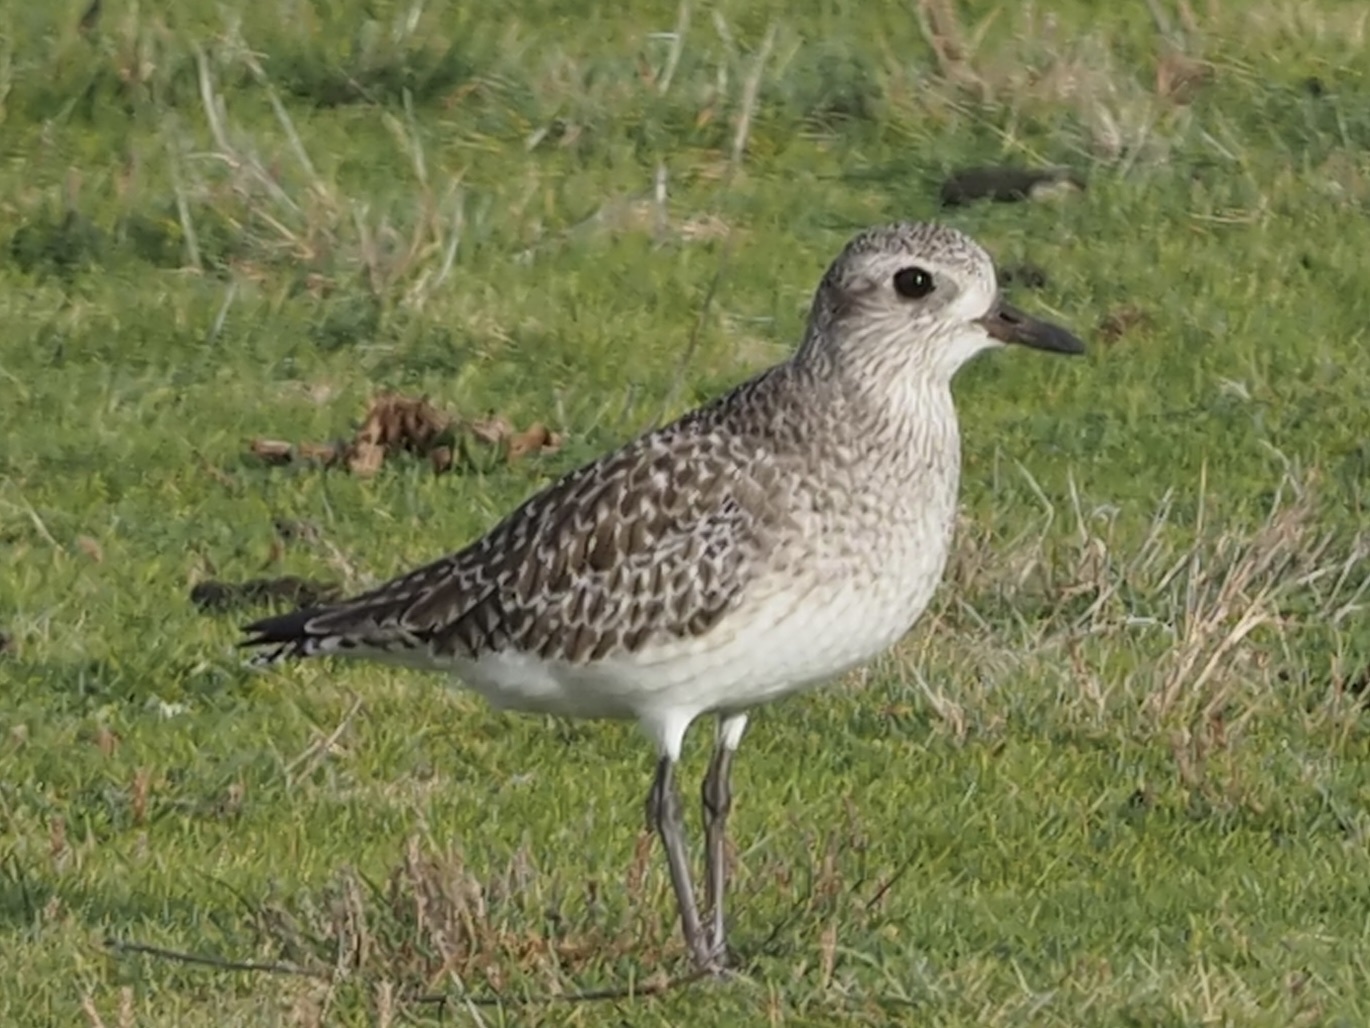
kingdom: Animalia
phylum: Chordata
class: Aves
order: Charadriiformes
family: Charadriidae
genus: Pluvialis
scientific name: Pluvialis squatarola
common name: Grey plover
